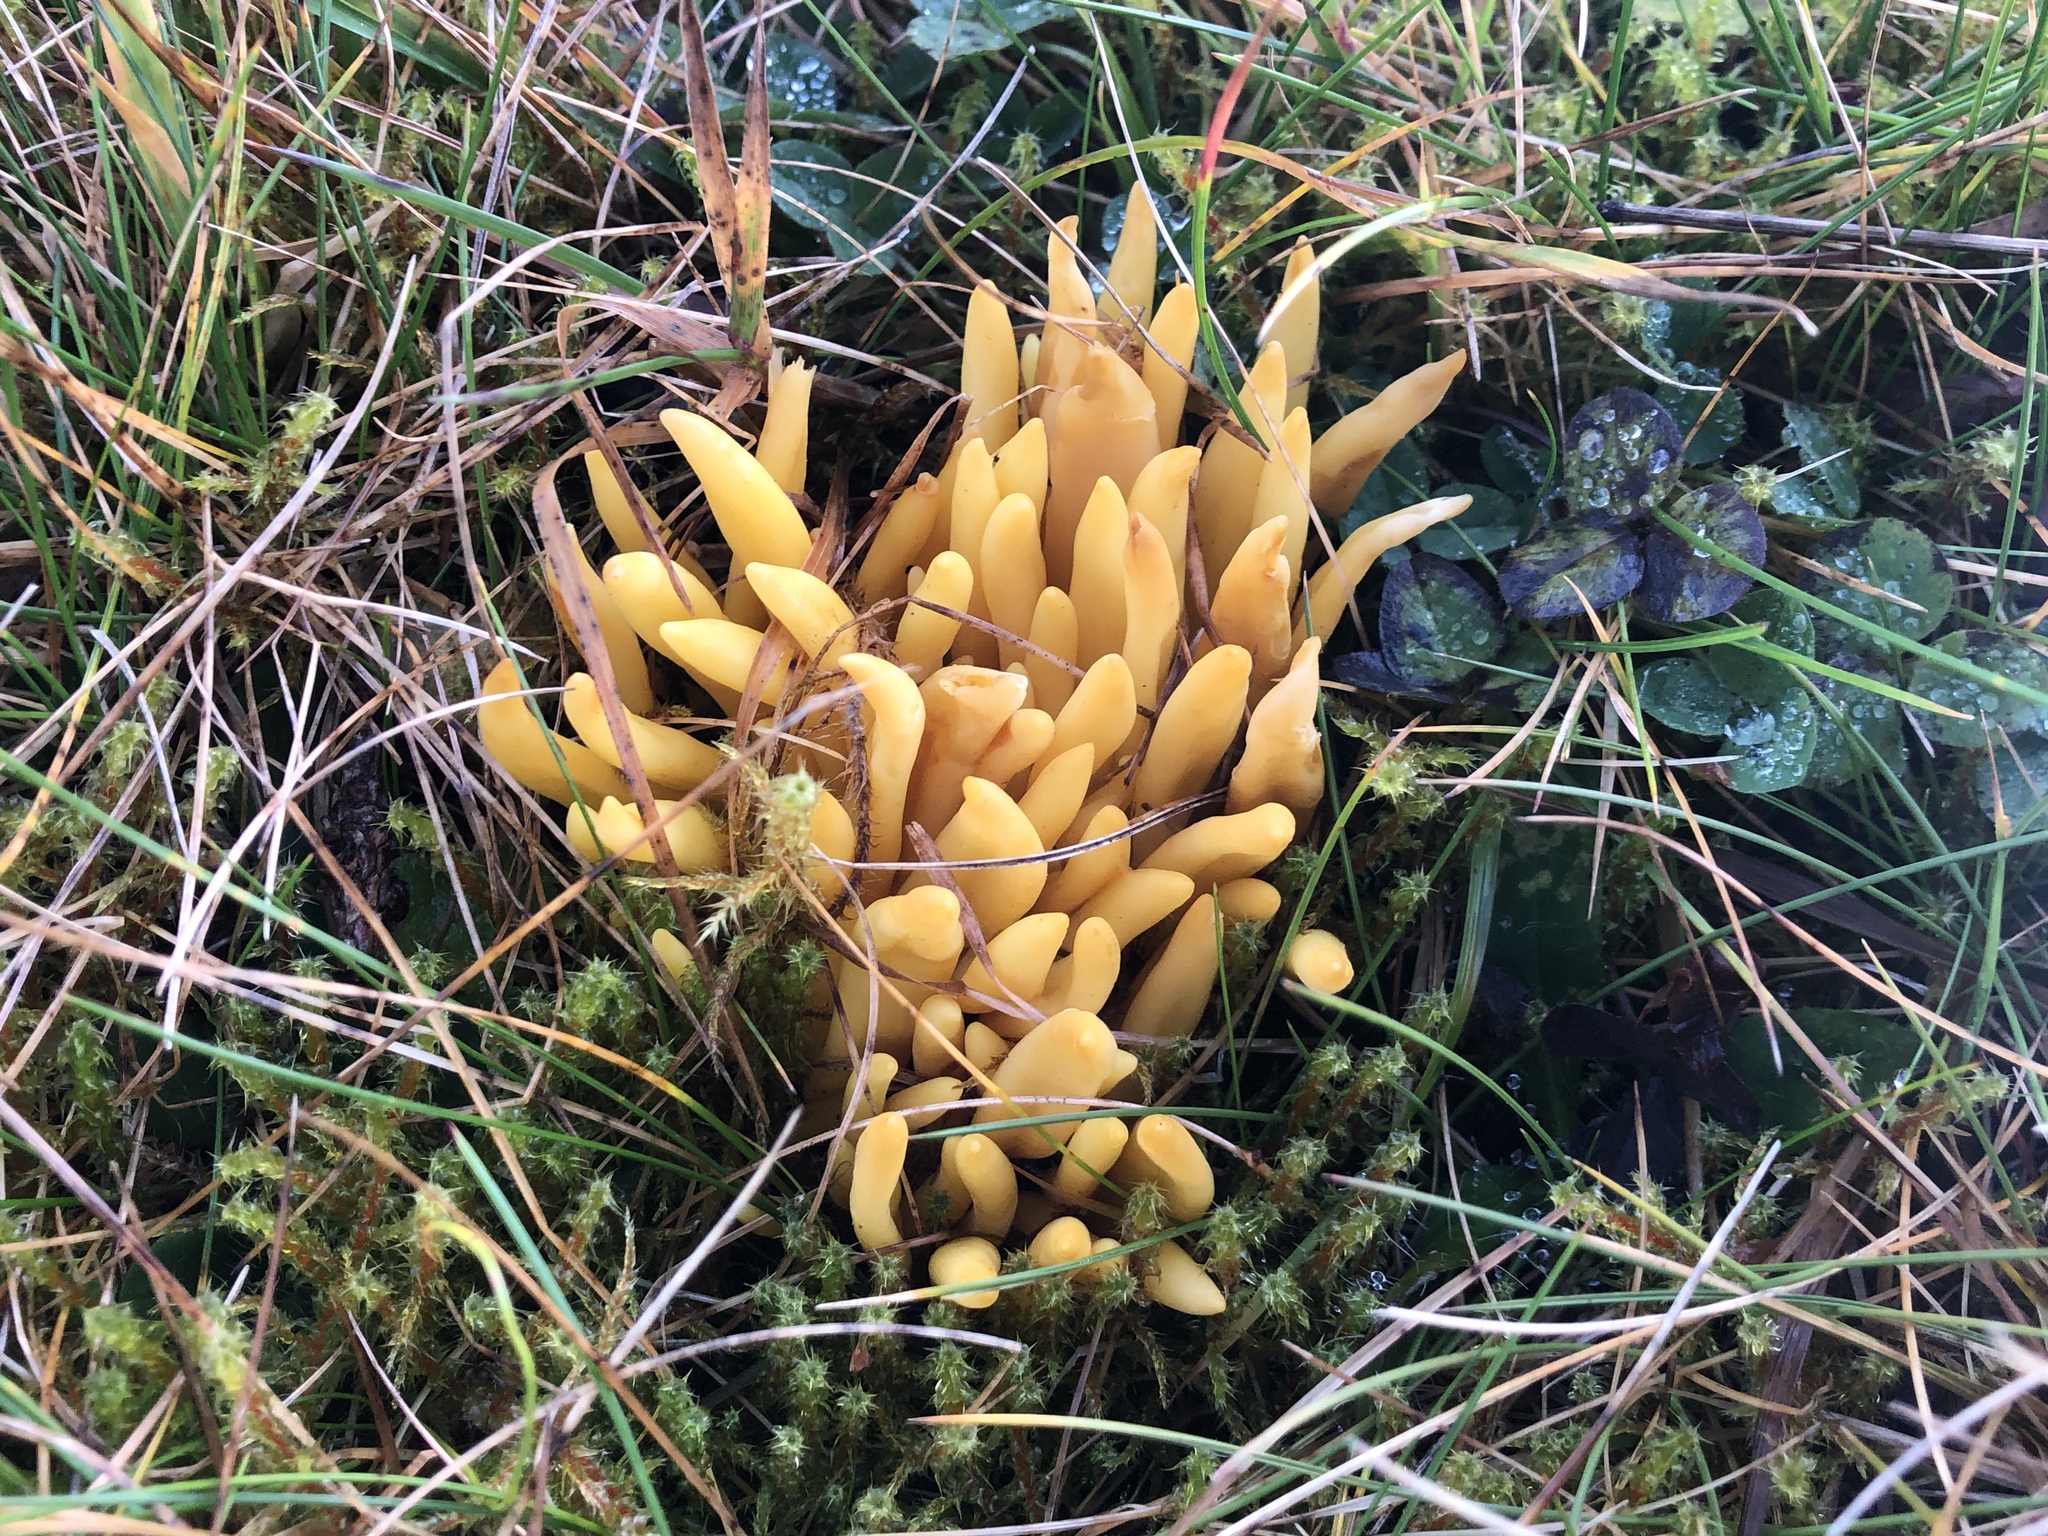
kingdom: Fungi
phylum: Basidiomycota
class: Agaricomycetes
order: Agaricales
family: Clavariaceae
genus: Clavulinopsis
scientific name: Clavulinopsis fusiformis
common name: Golden spindles
